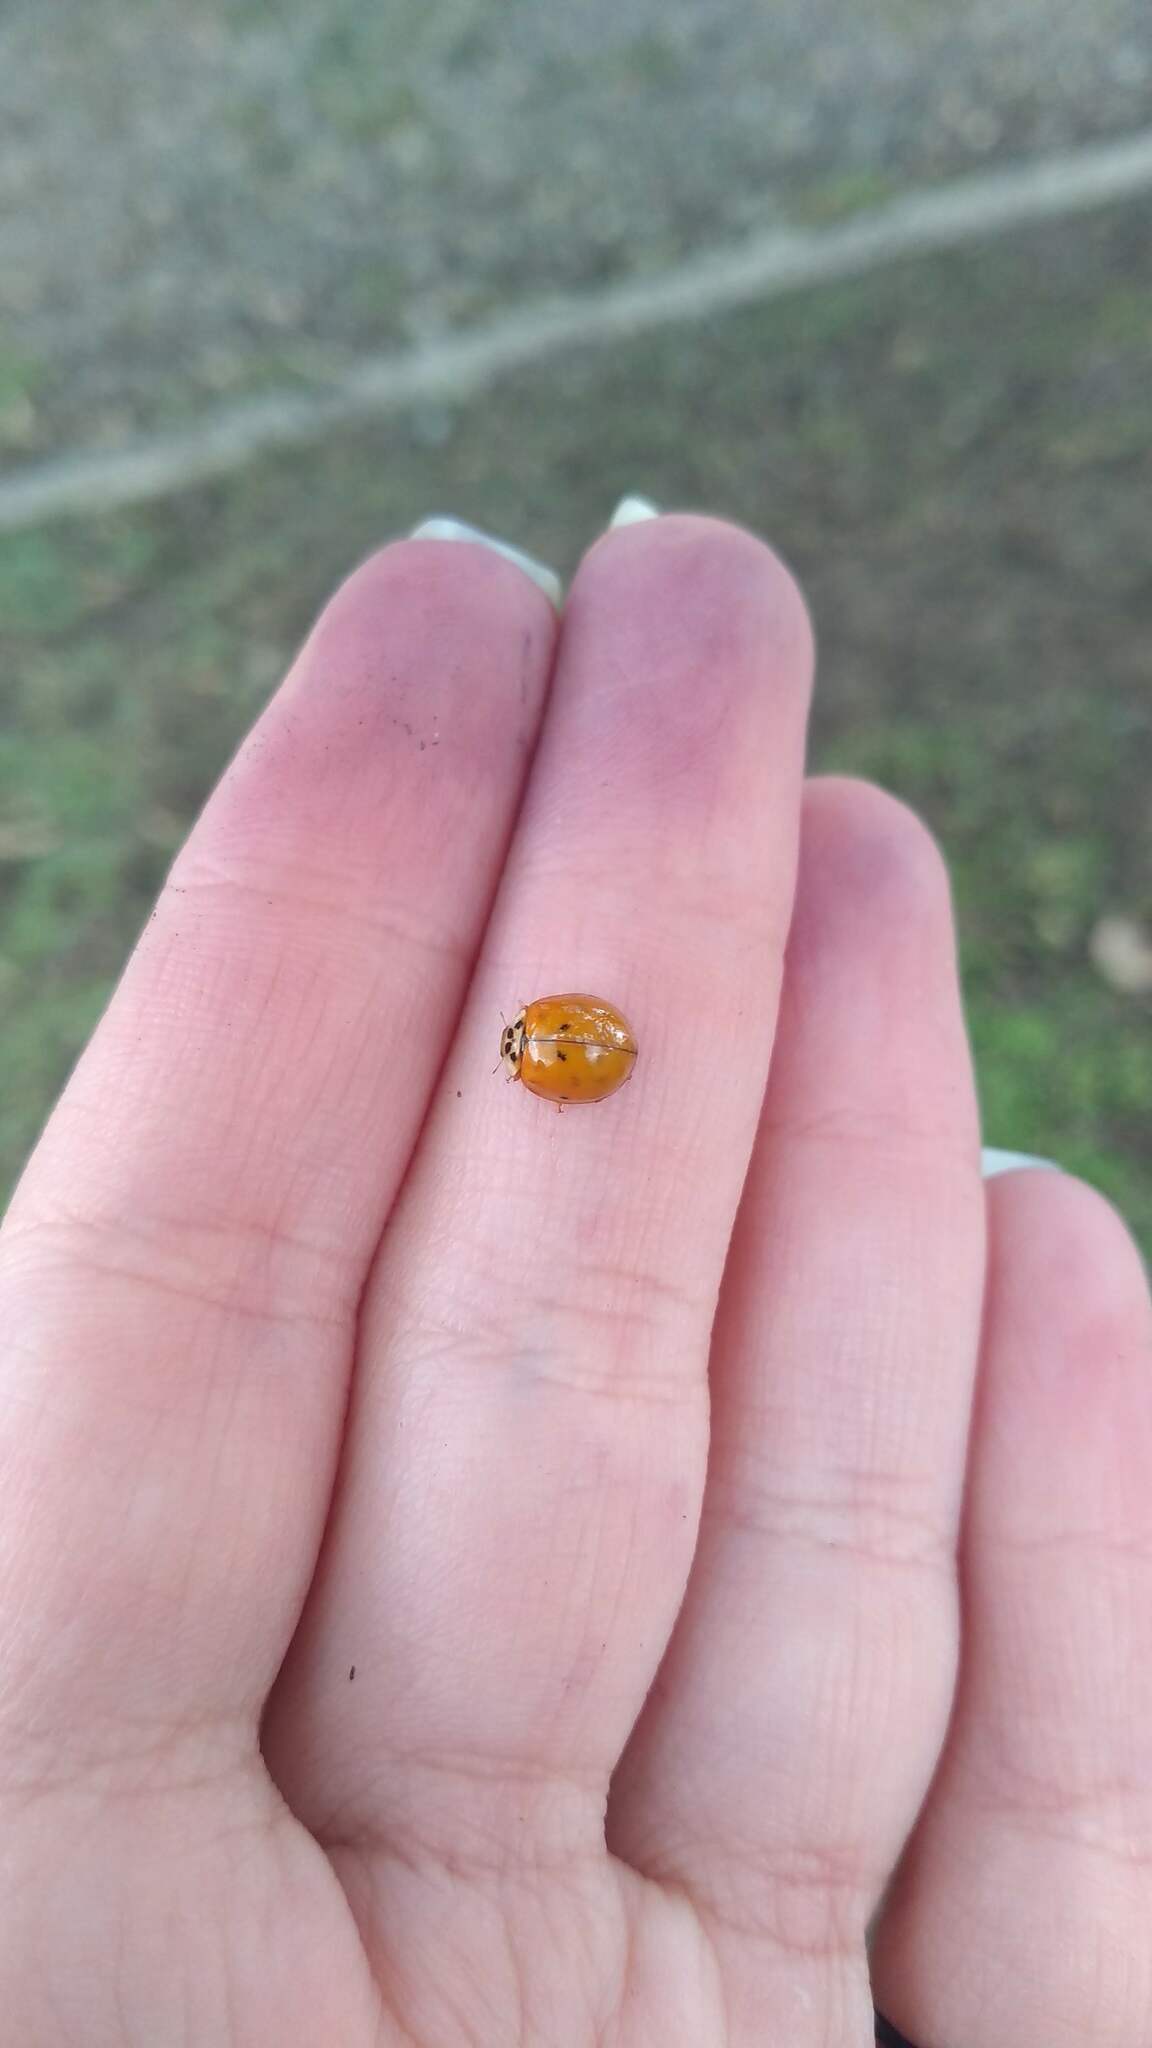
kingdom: Animalia
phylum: Arthropoda
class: Insecta
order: Coleoptera
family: Coccinellidae
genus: Harmonia
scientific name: Harmonia axyridis
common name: Harlequin ladybird
